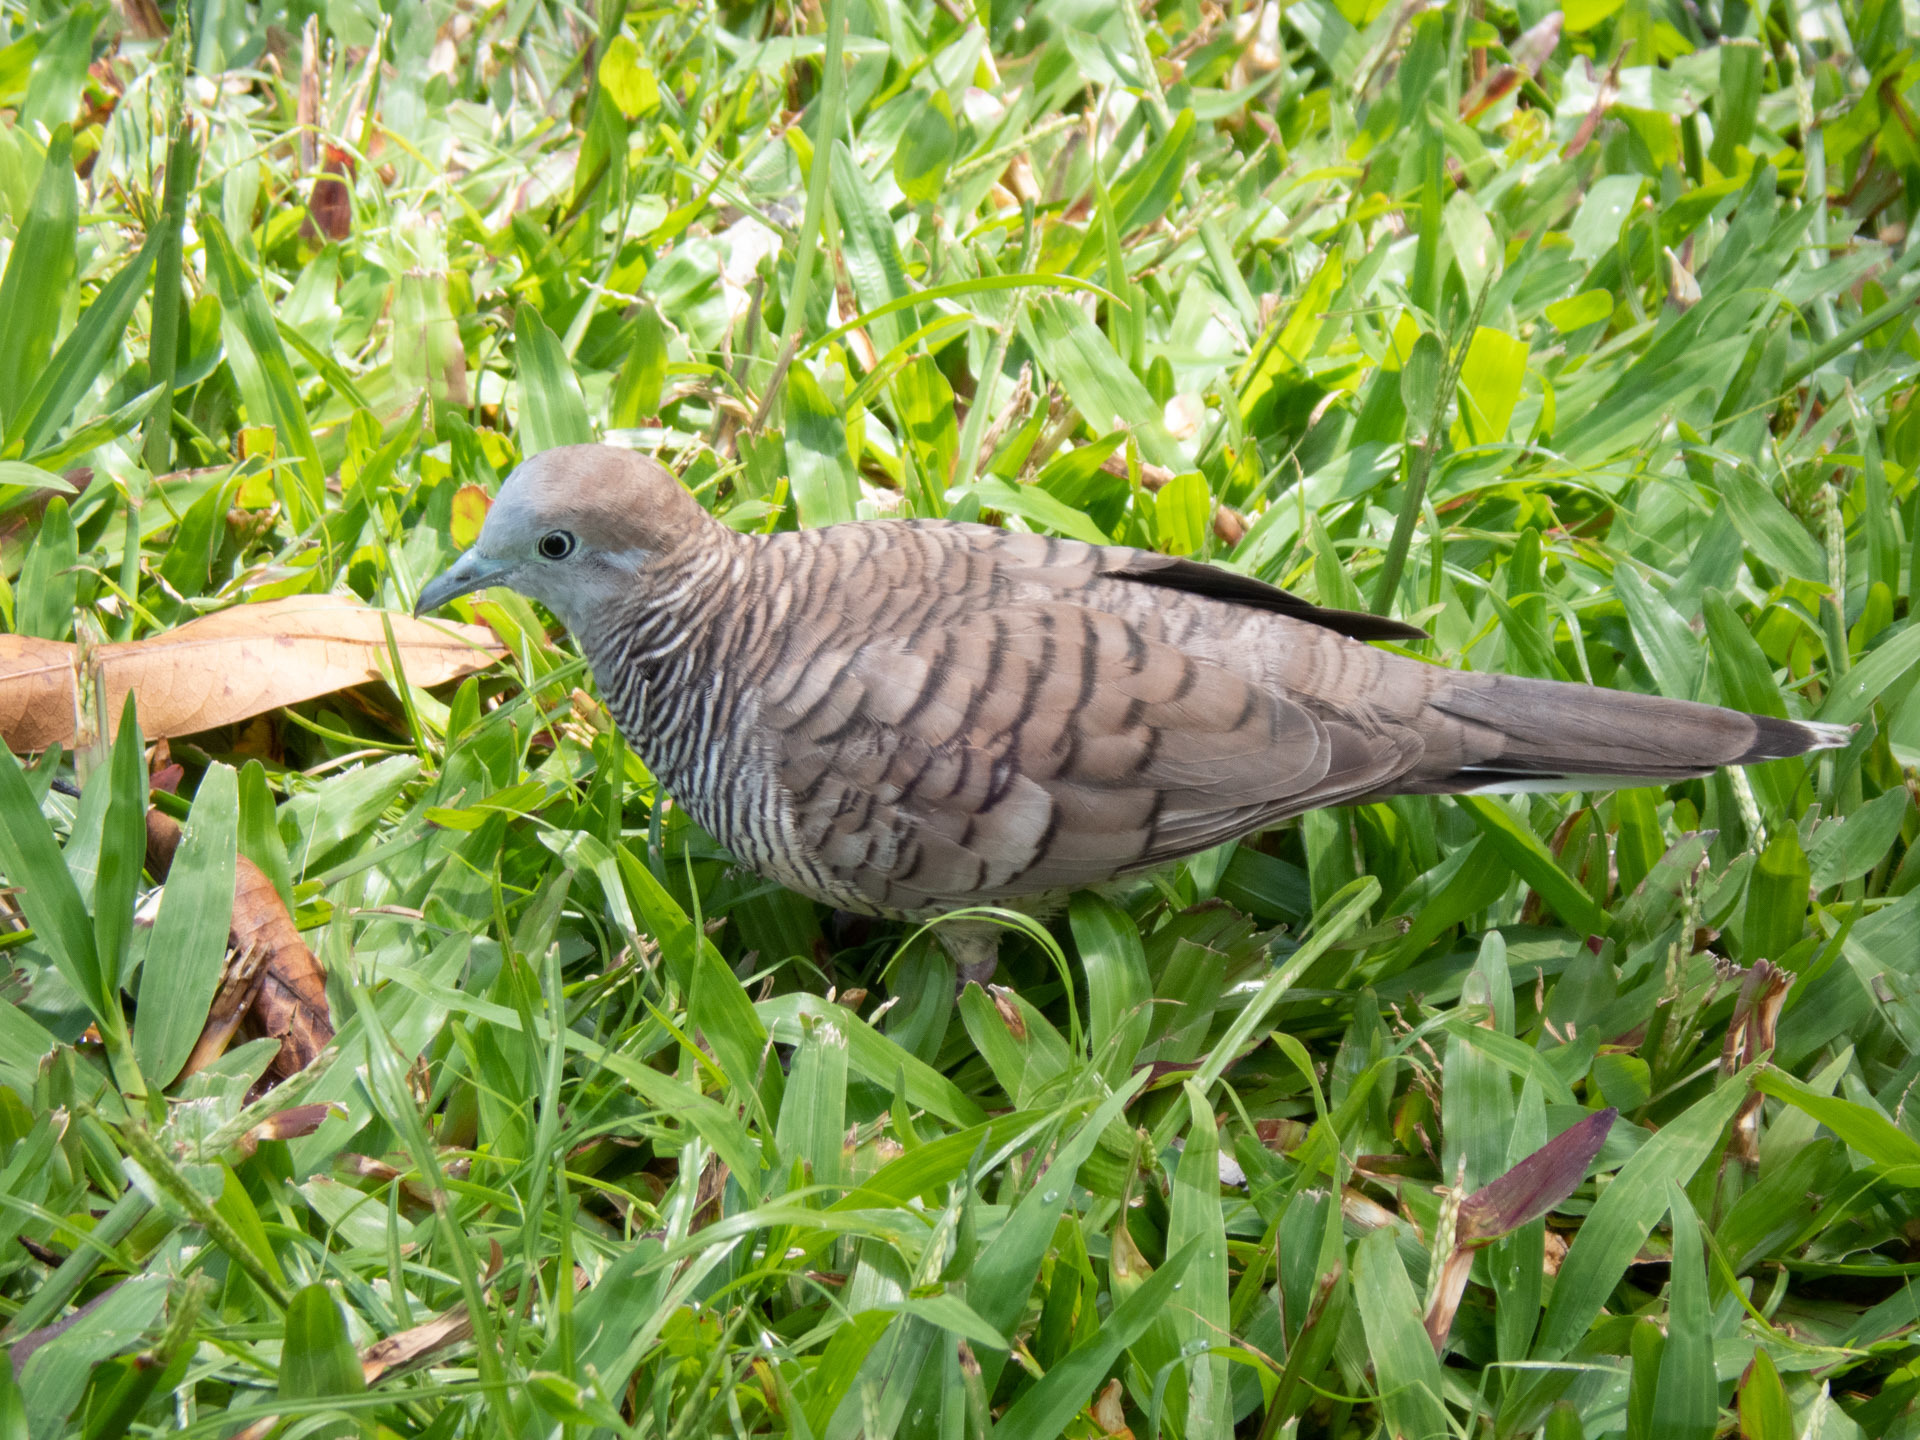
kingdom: Animalia
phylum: Chordata
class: Aves
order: Columbiformes
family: Columbidae
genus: Geopelia
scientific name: Geopelia striata
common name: Zebra dove
